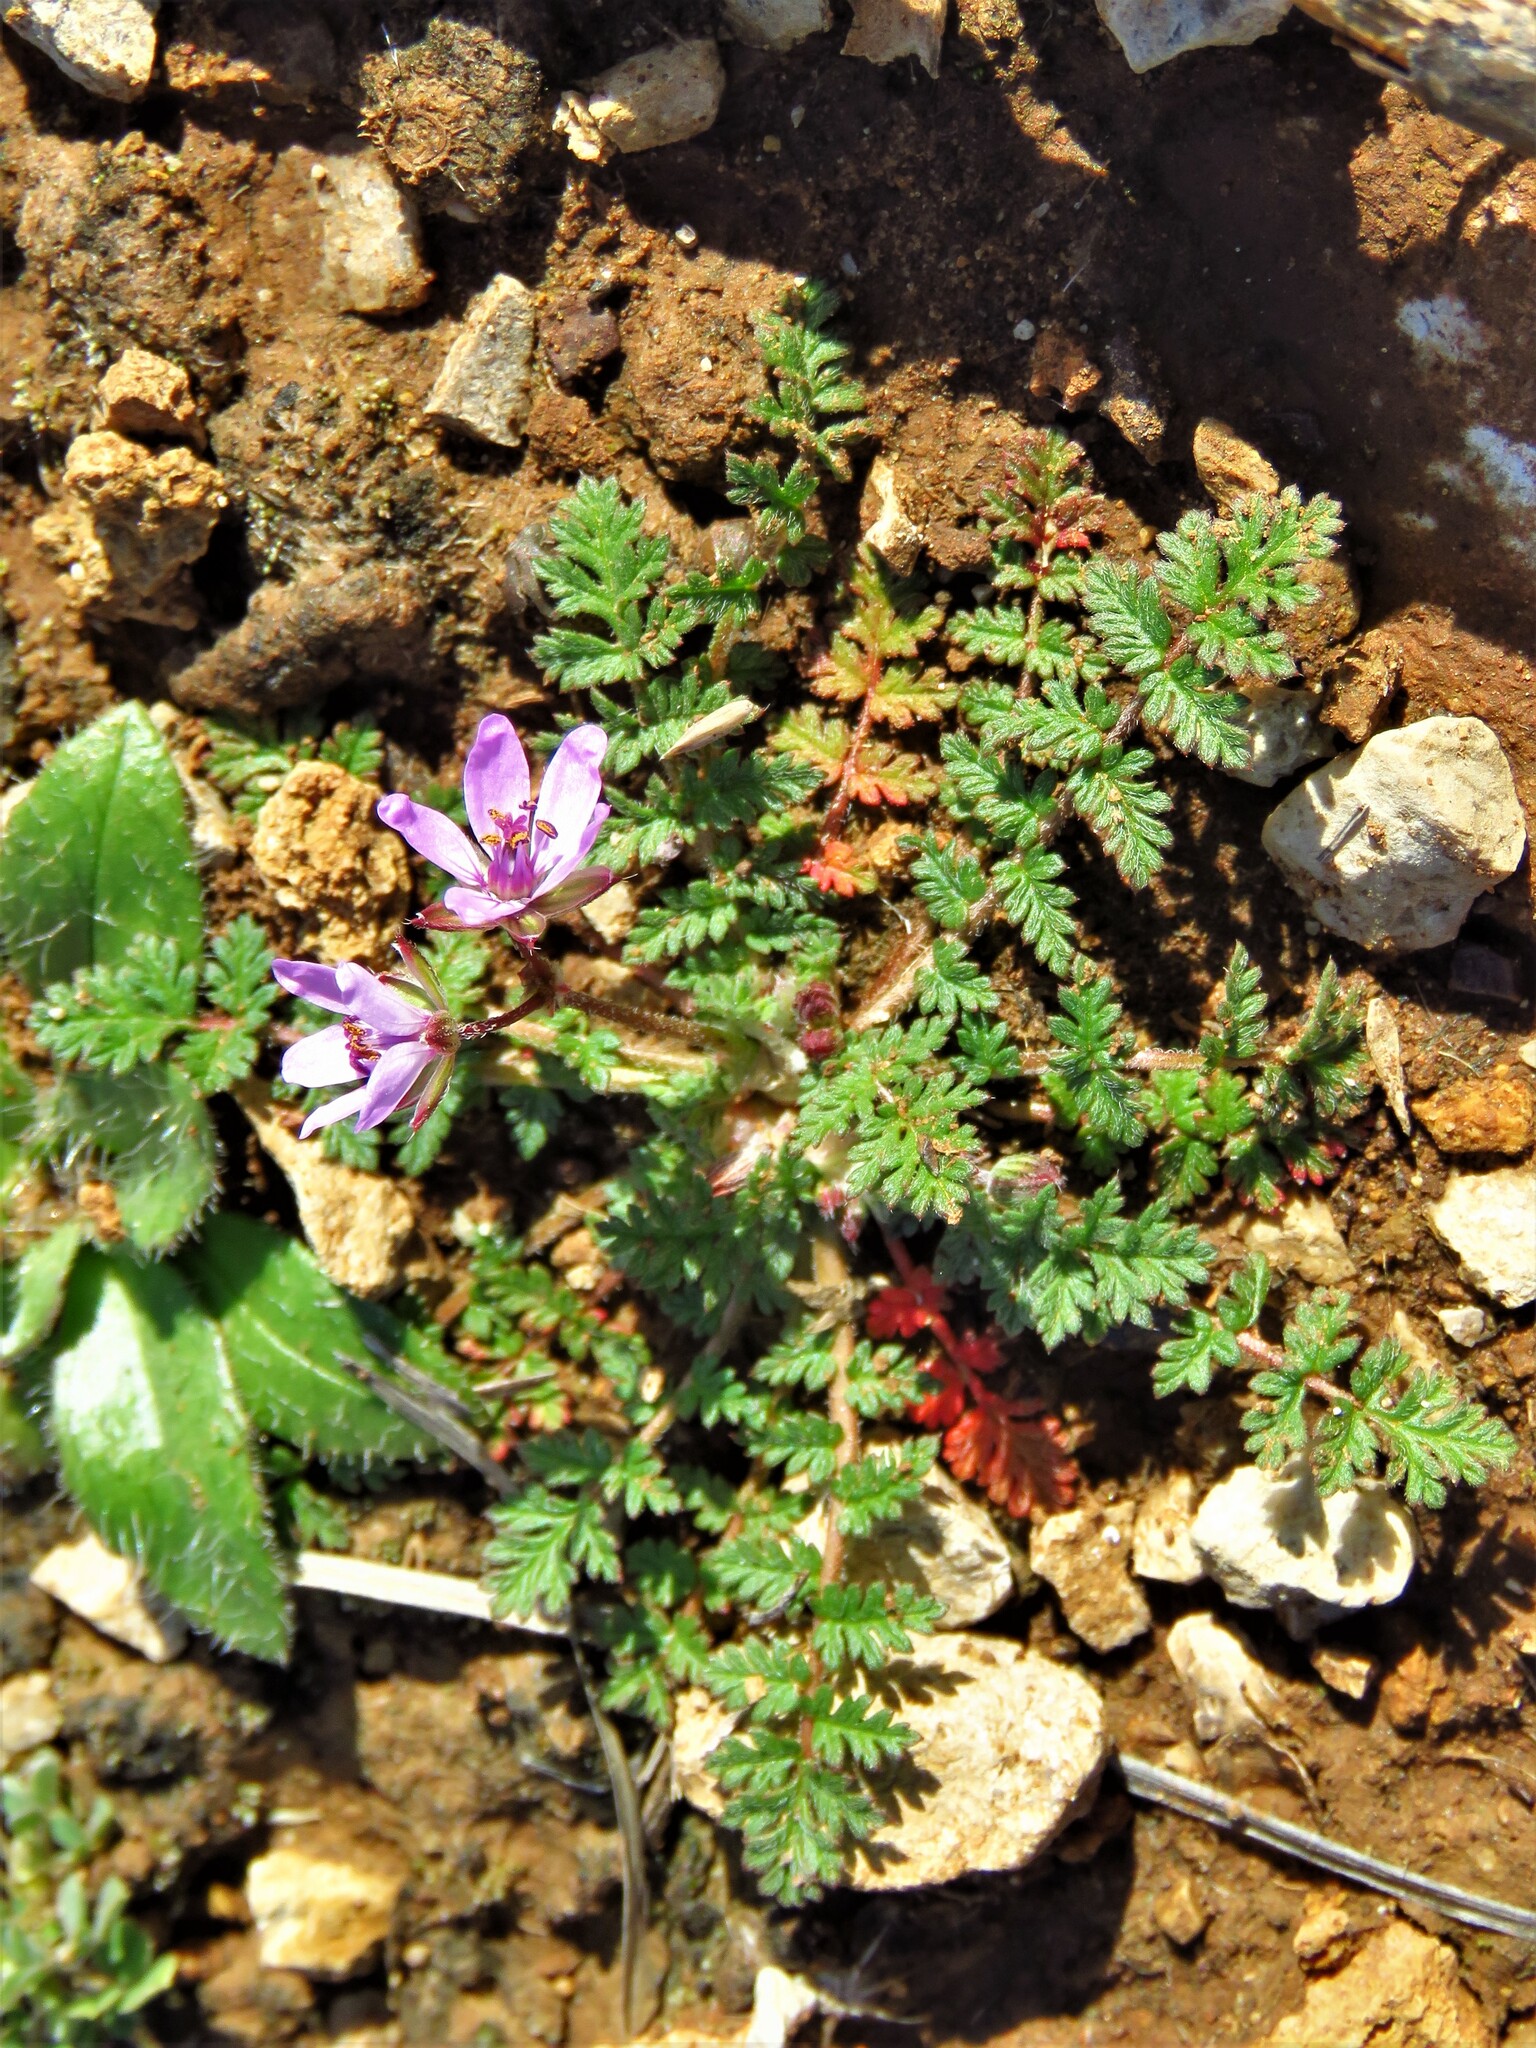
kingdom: Plantae
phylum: Tracheophyta
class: Magnoliopsida
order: Geraniales
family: Geraniaceae
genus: Erodium
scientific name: Erodium cicutarium
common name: Common stork's-bill
